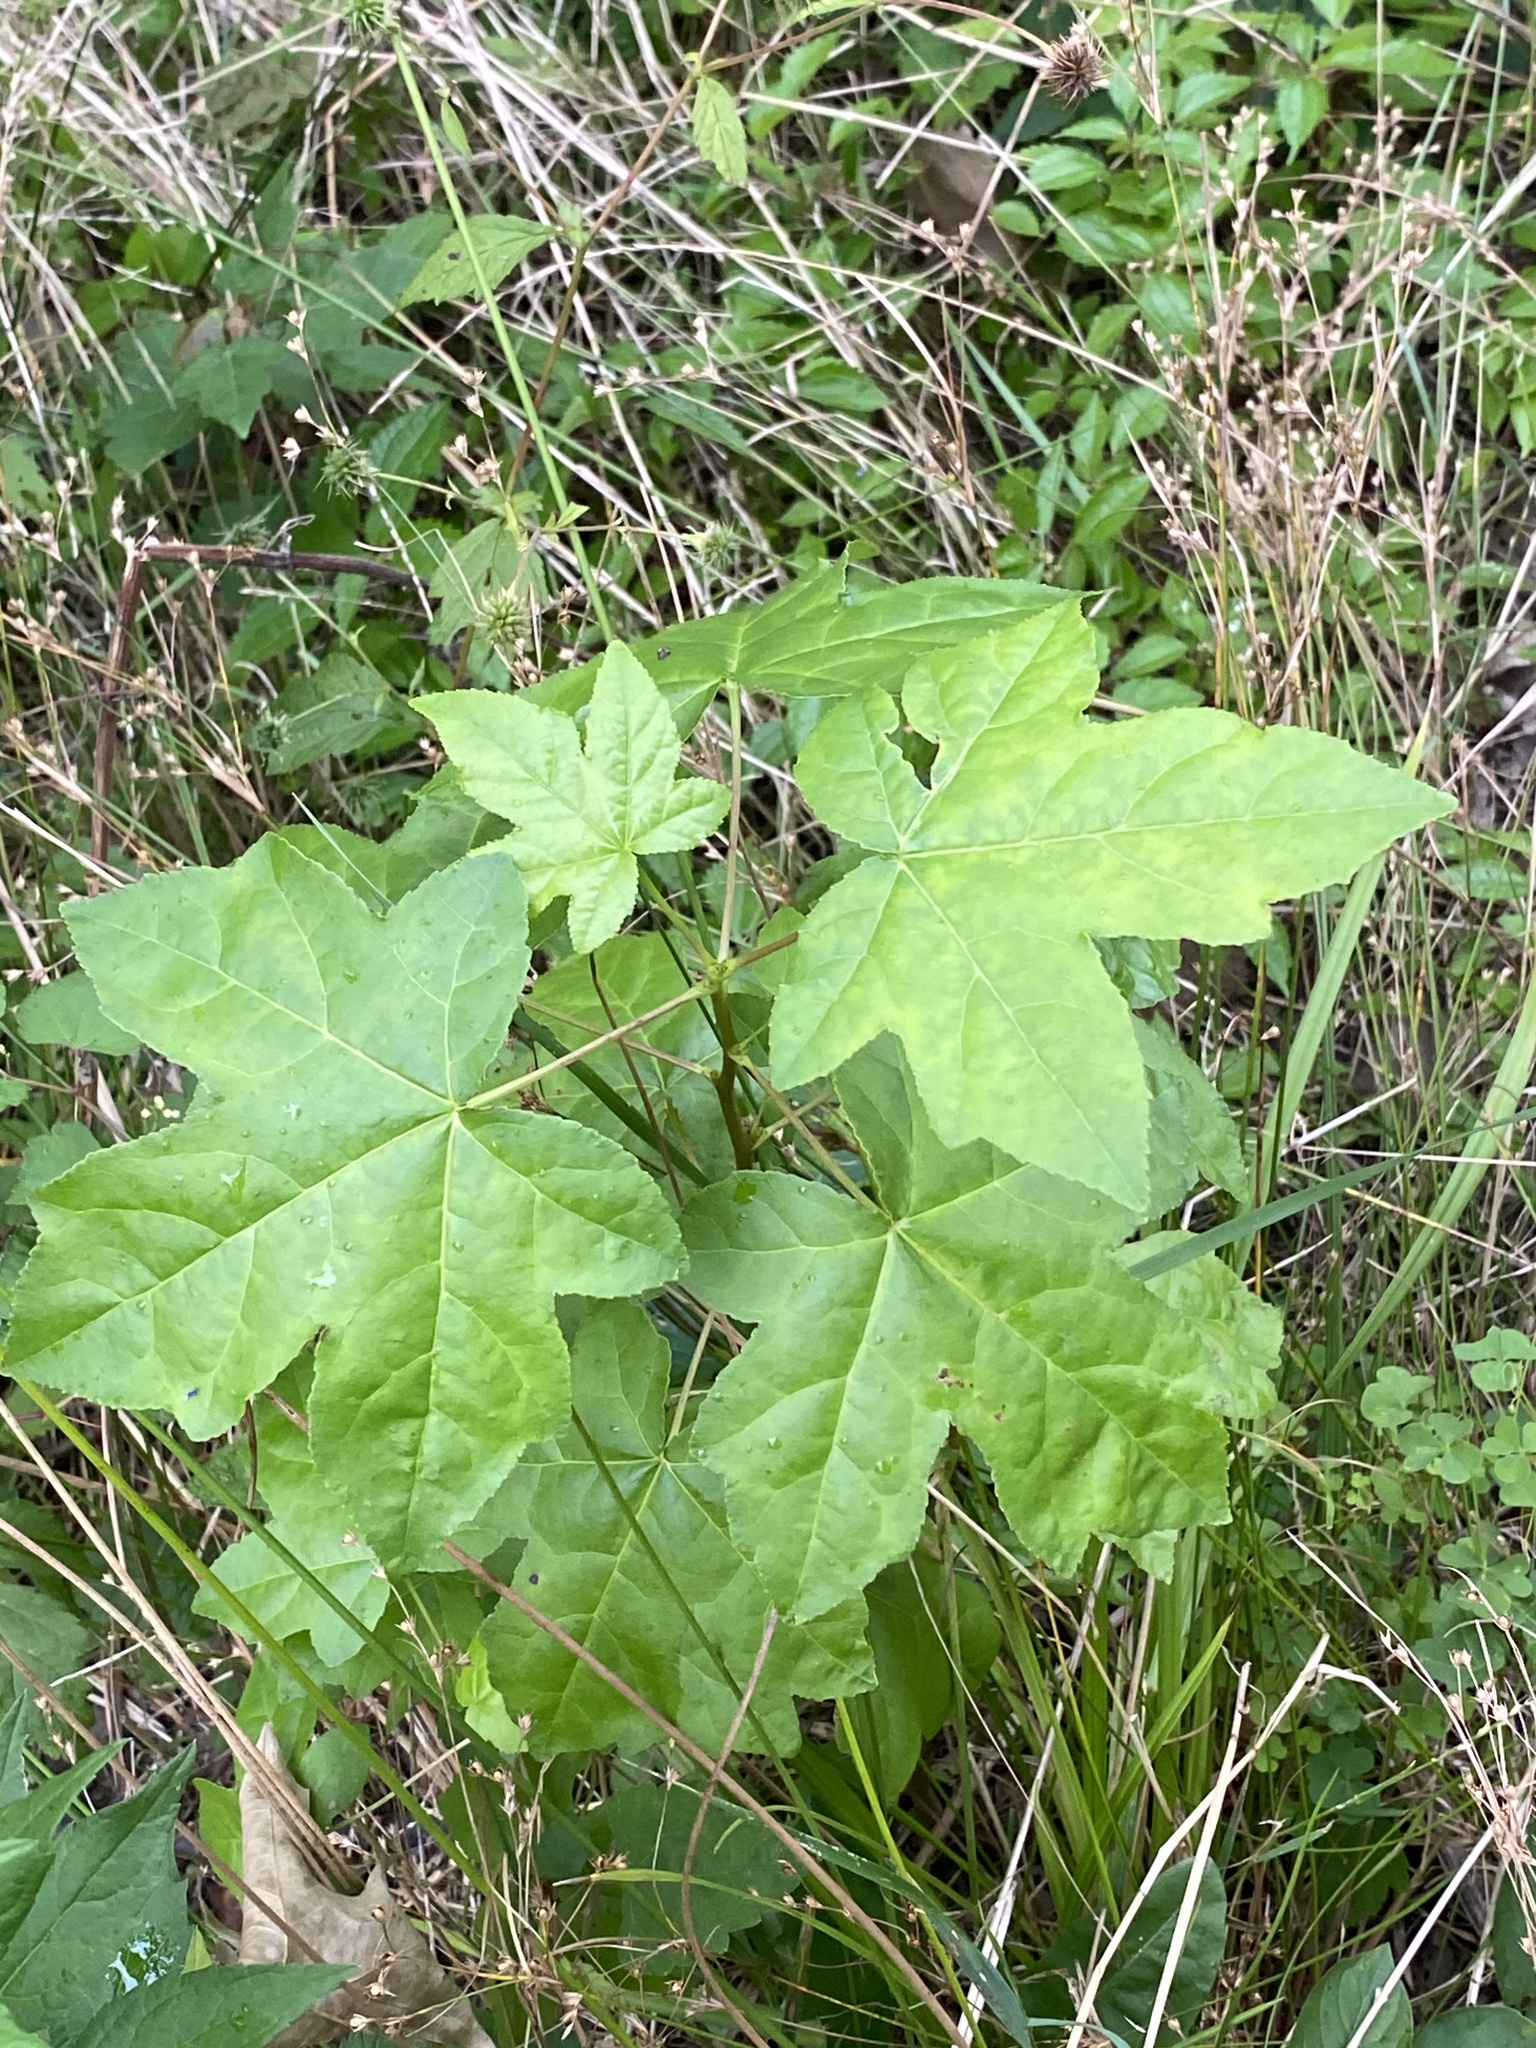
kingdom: Plantae
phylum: Tracheophyta
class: Magnoliopsida
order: Saxifragales
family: Altingiaceae
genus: Liquidambar
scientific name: Liquidambar styraciflua
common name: Sweet gum
